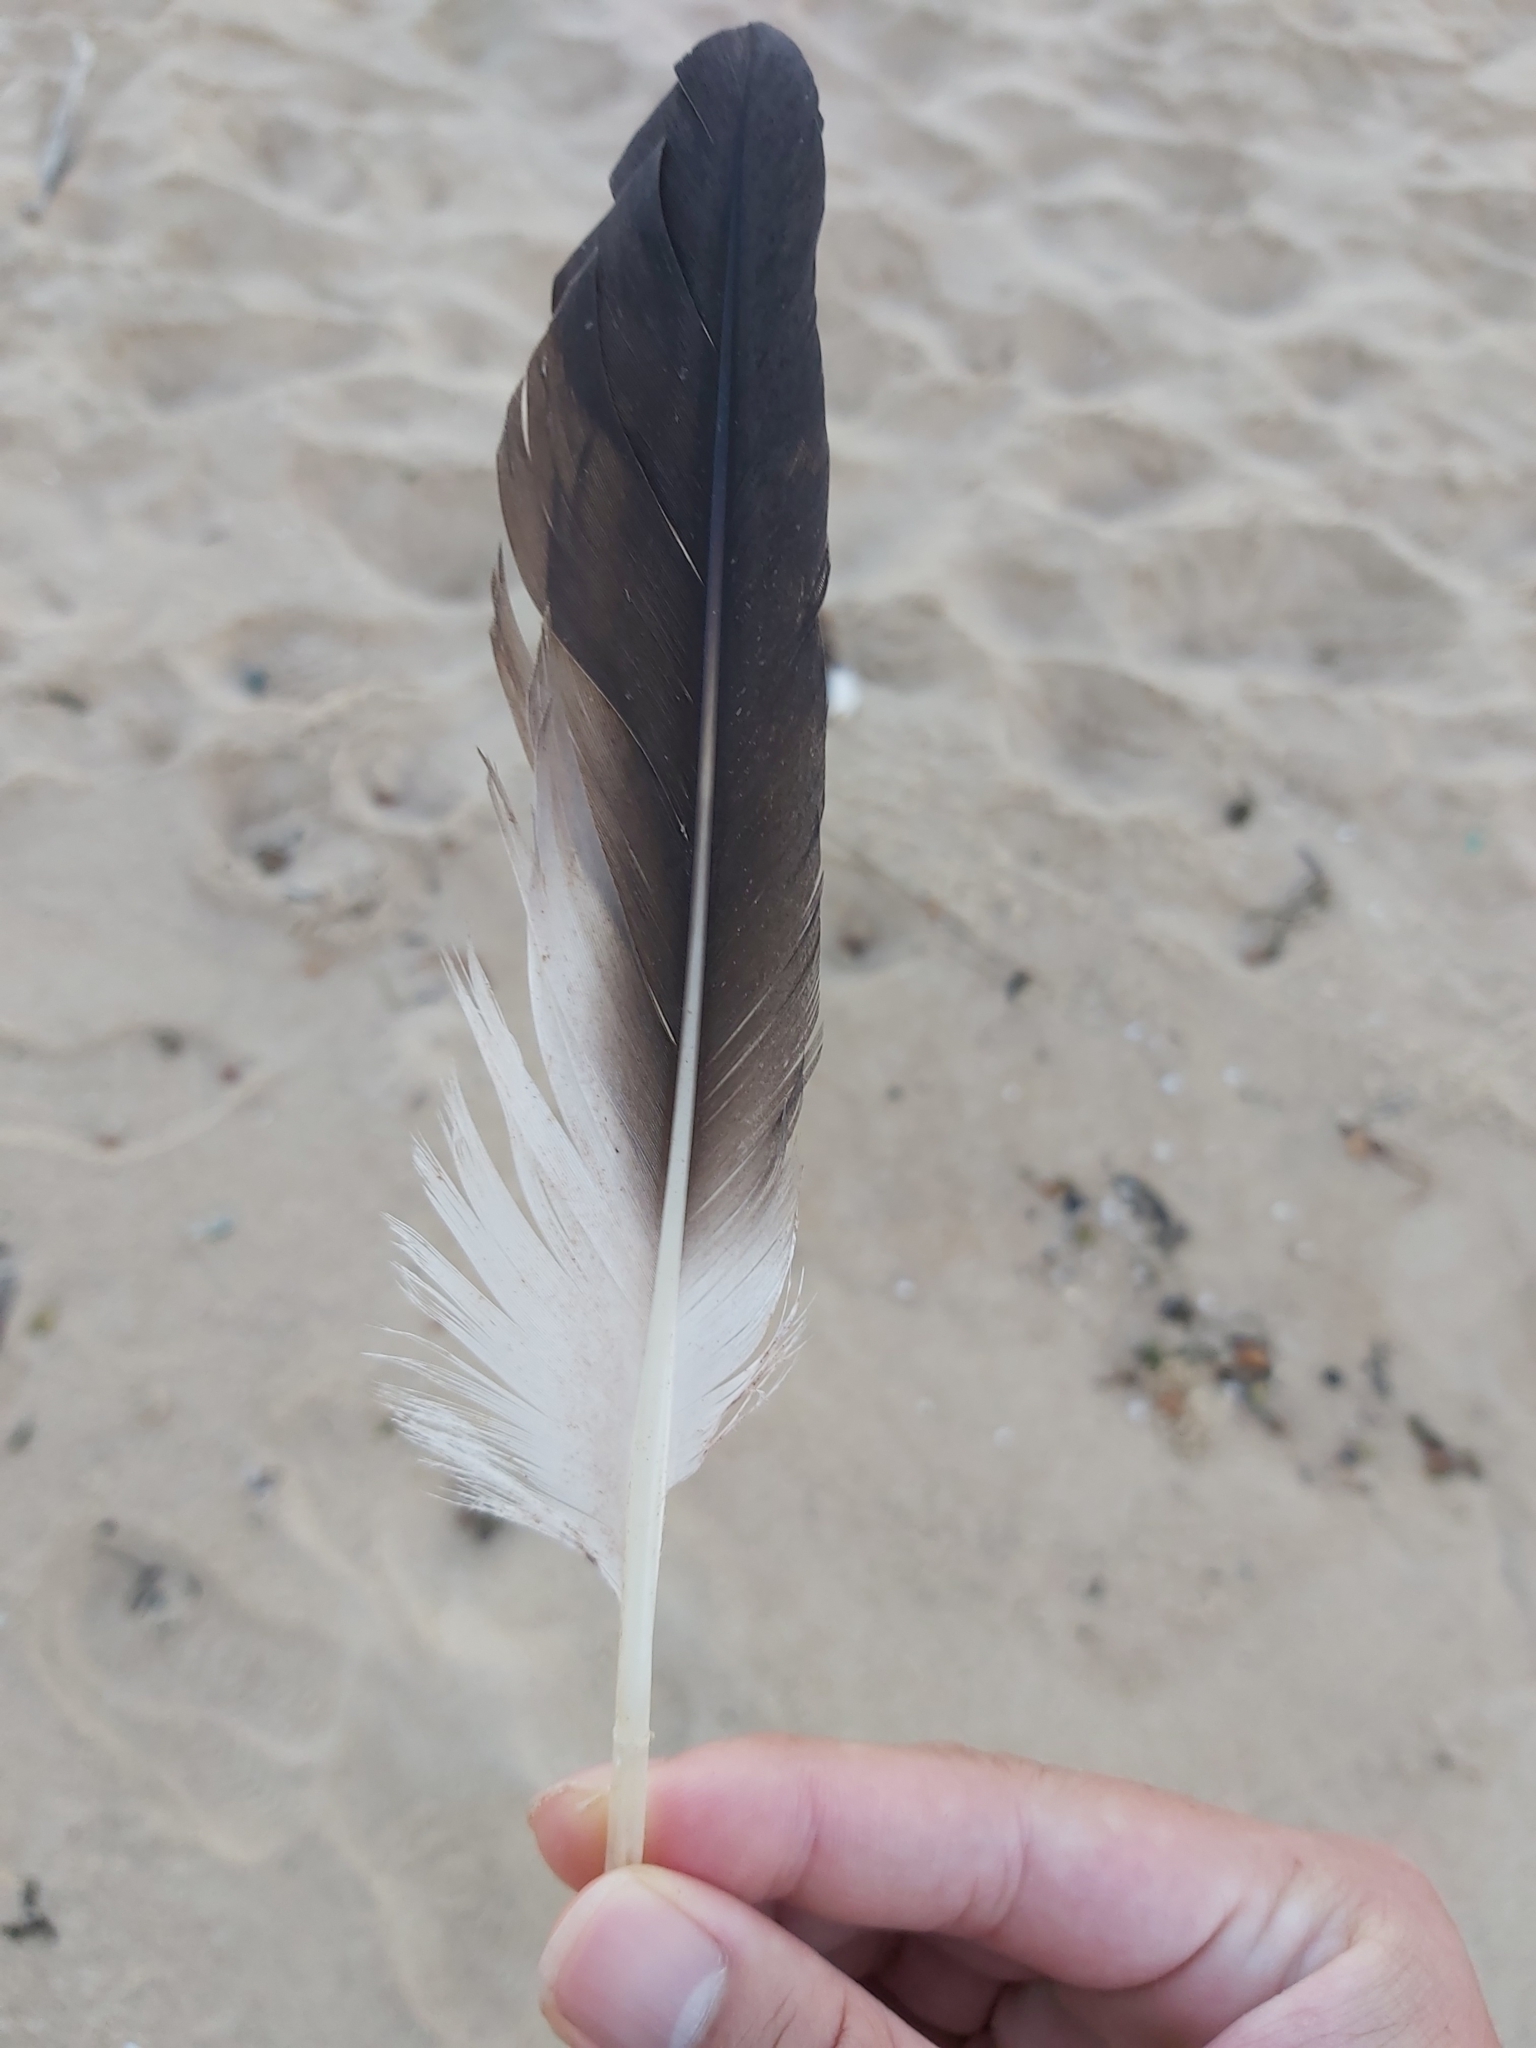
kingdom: Animalia
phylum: Chordata
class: Aves
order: Suliformes
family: Sulidae
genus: Morus
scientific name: Morus serrator
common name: Australasian gannet
